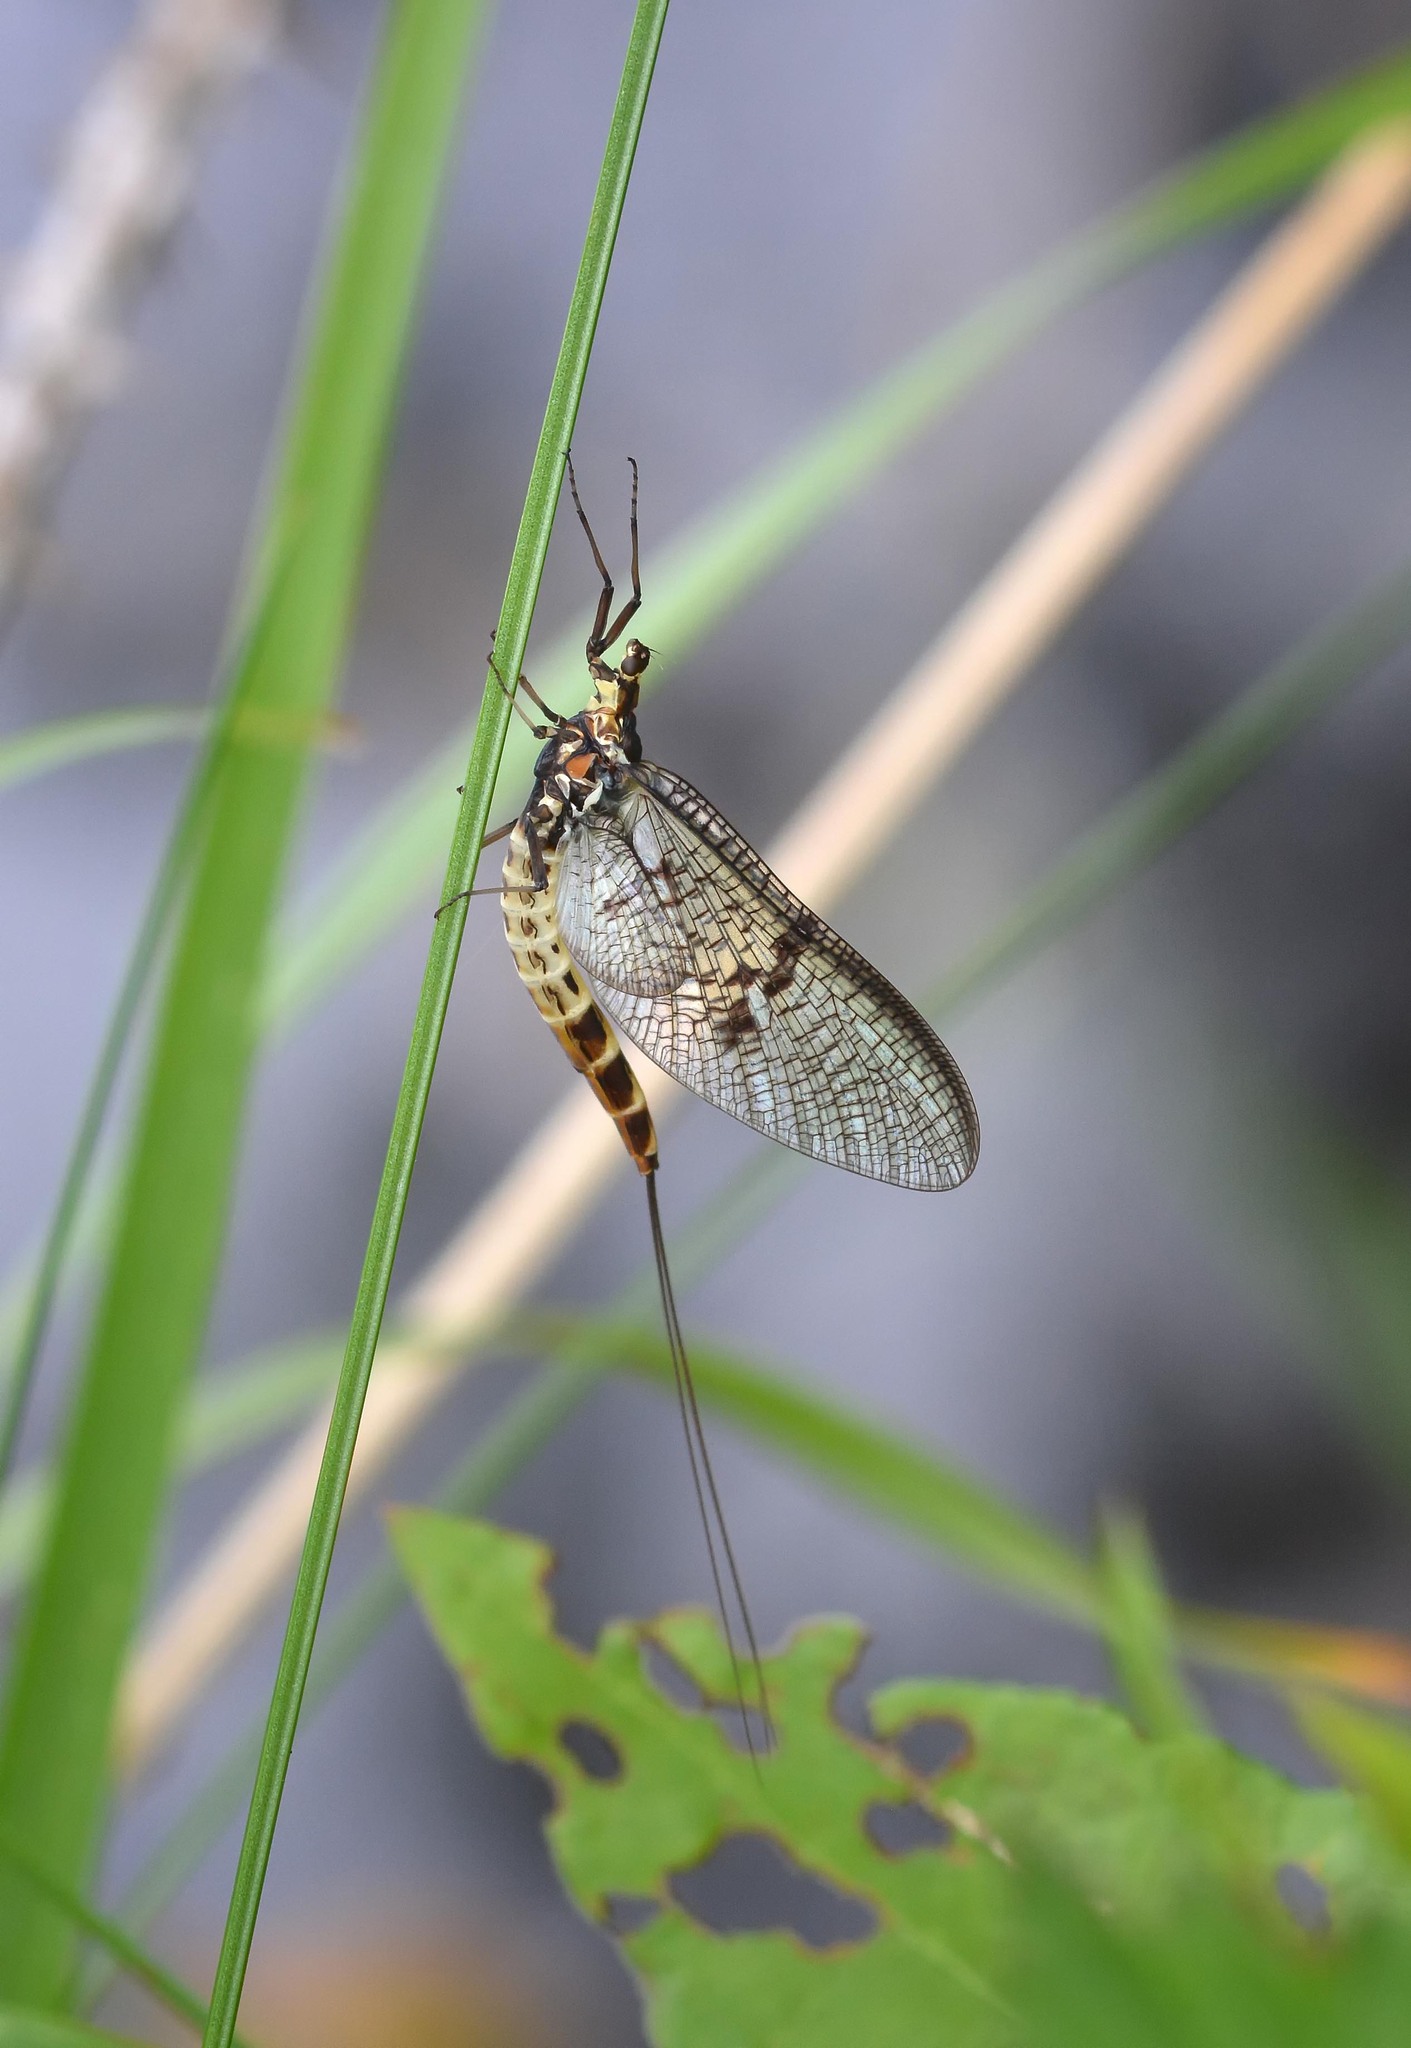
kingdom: Animalia
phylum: Arthropoda
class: Insecta
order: Ephemeroptera
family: Ephemeridae
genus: Ephemera
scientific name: Ephemera danica
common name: Green dun
